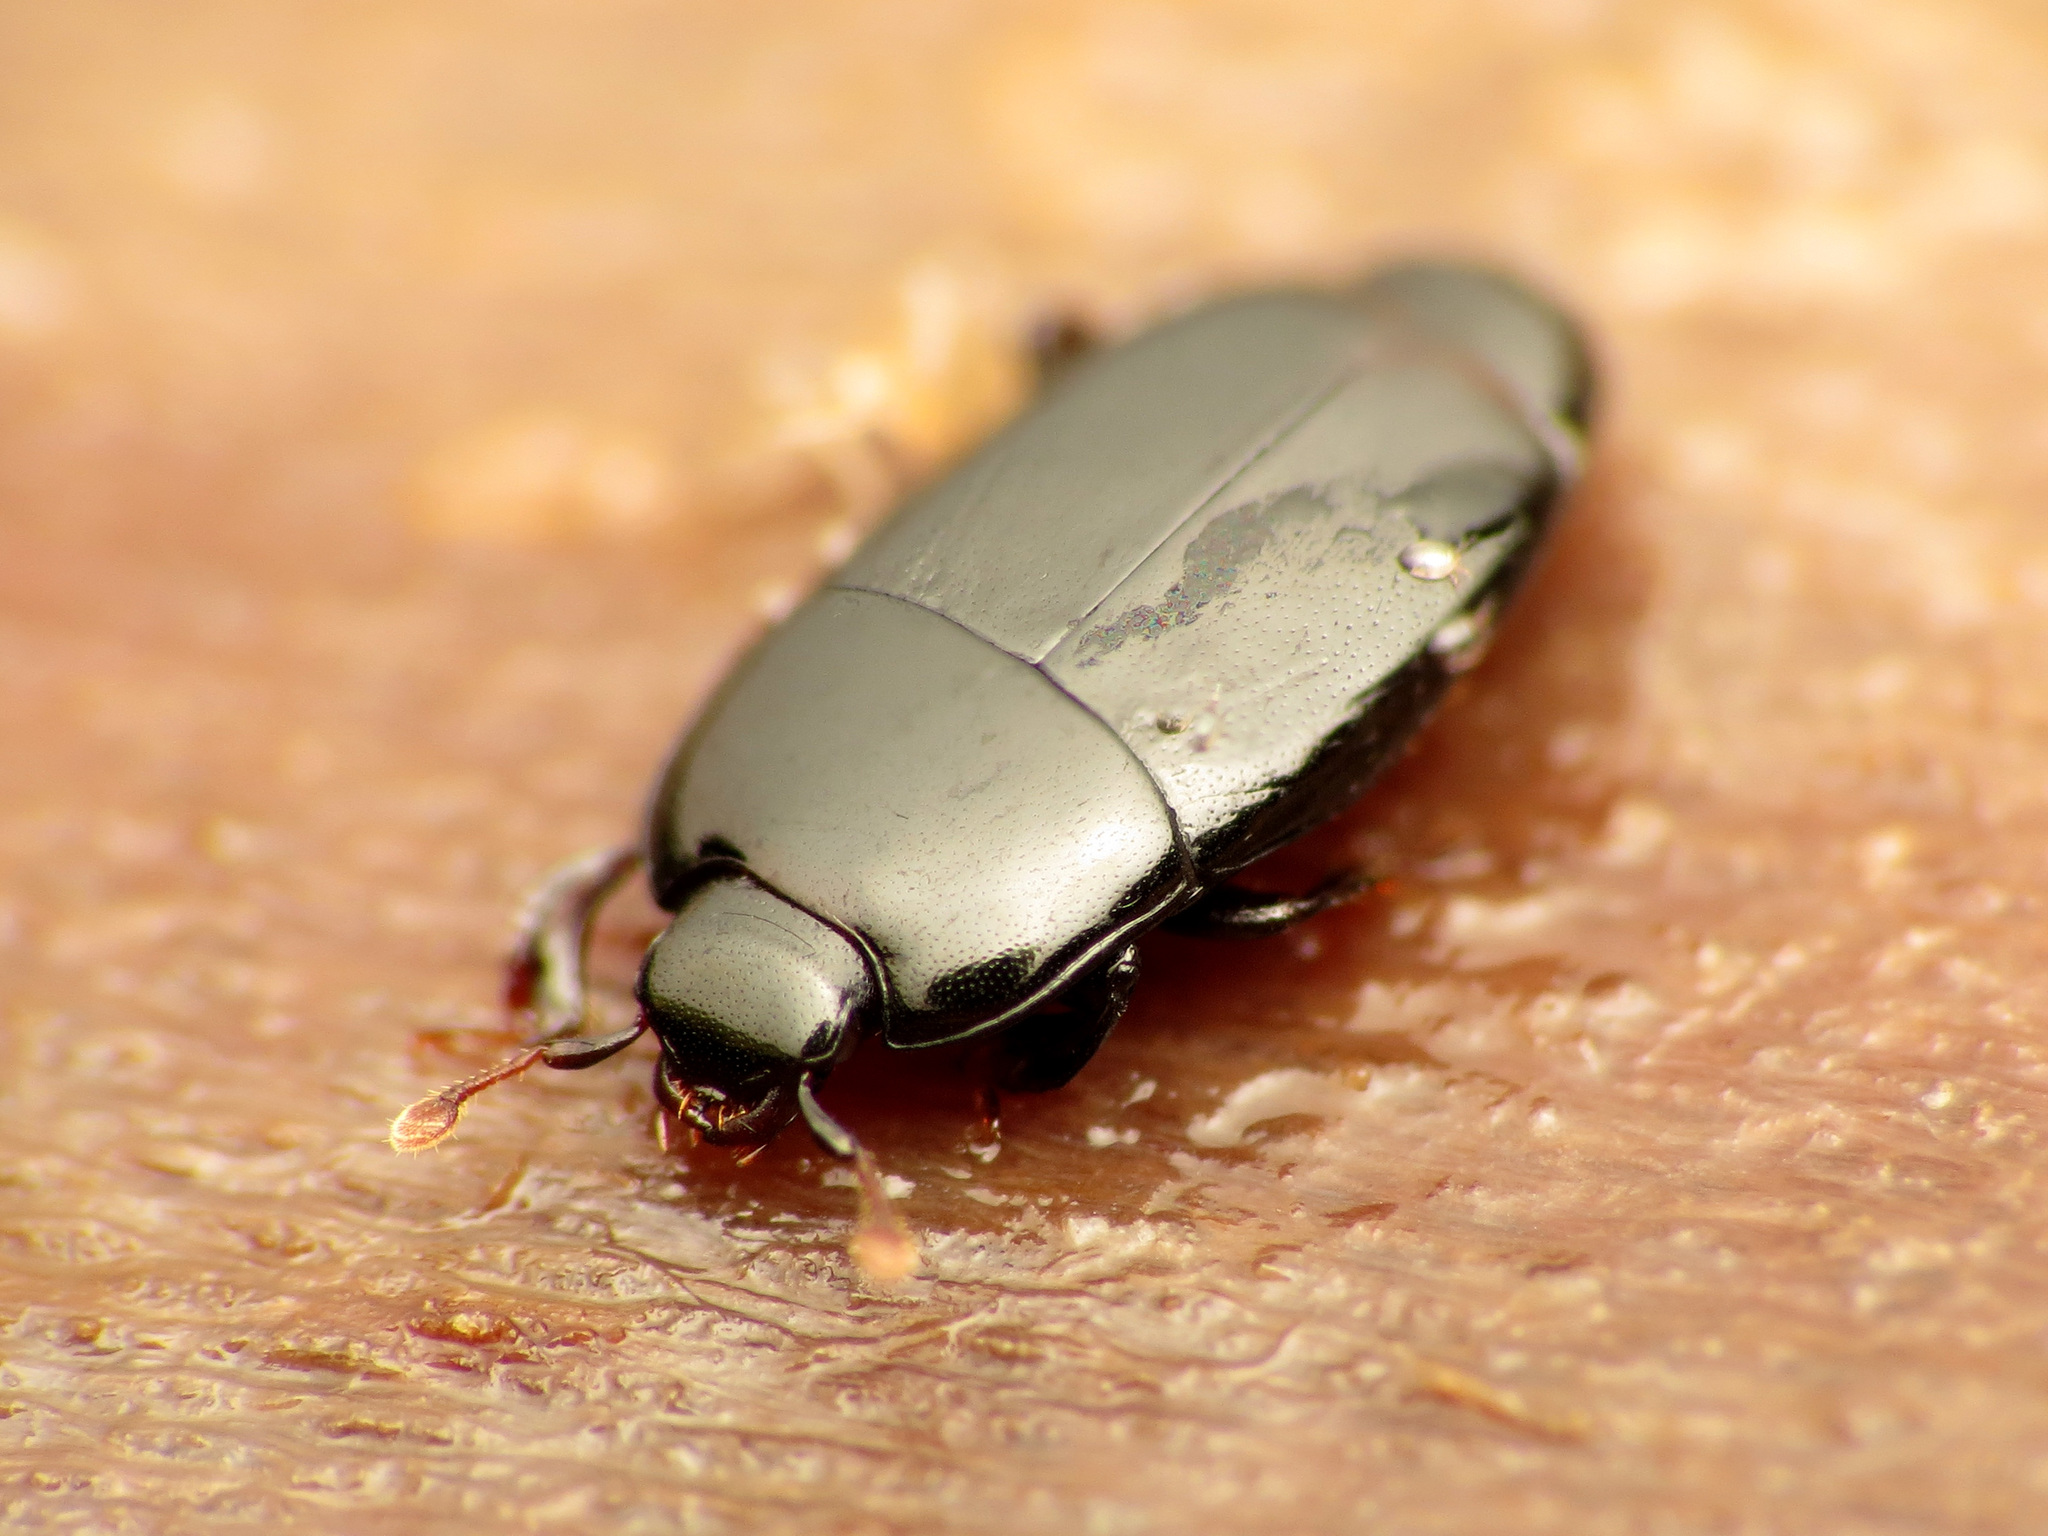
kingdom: Animalia
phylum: Arthropoda
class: Insecta
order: Coleoptera
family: Histeridae
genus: Platylomalus
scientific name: Platylomalus aequalis
